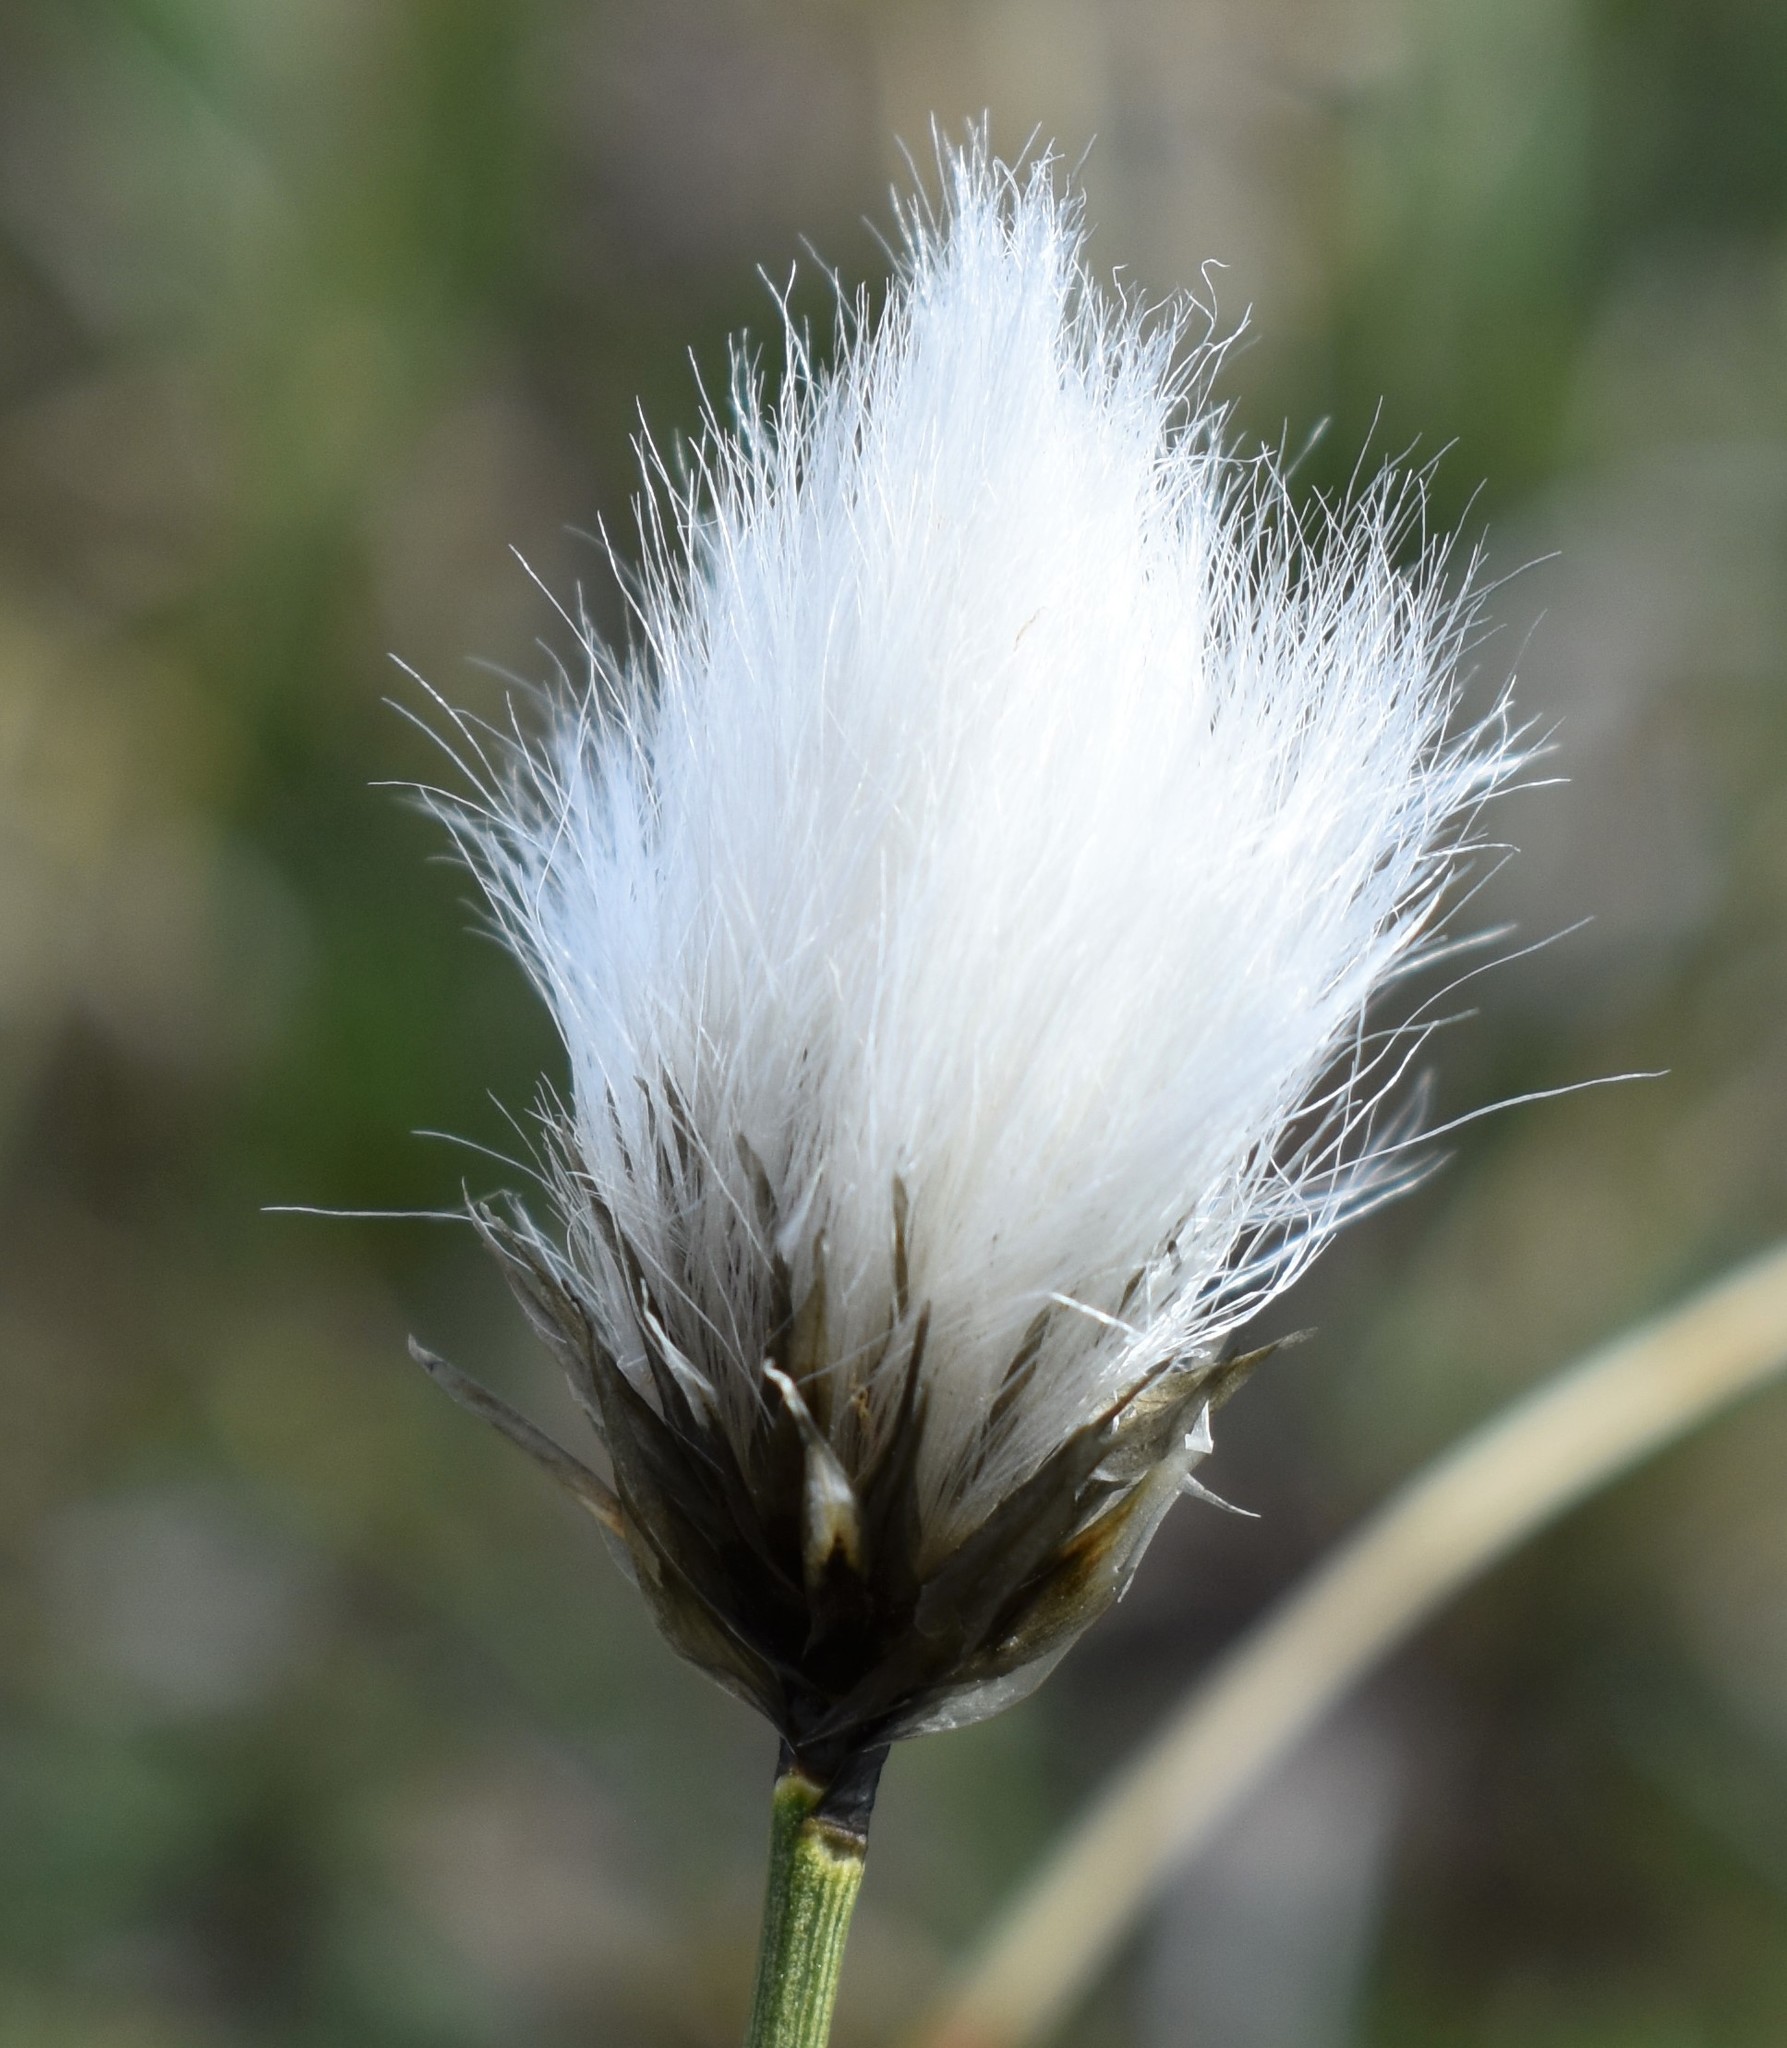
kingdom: Plantae
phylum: Tracheophyta
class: Liliopsida
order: Poales
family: Cyperaceae
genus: Eriophorum
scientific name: Eriophorum vaginatum
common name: Hare's-tail cottongrass
